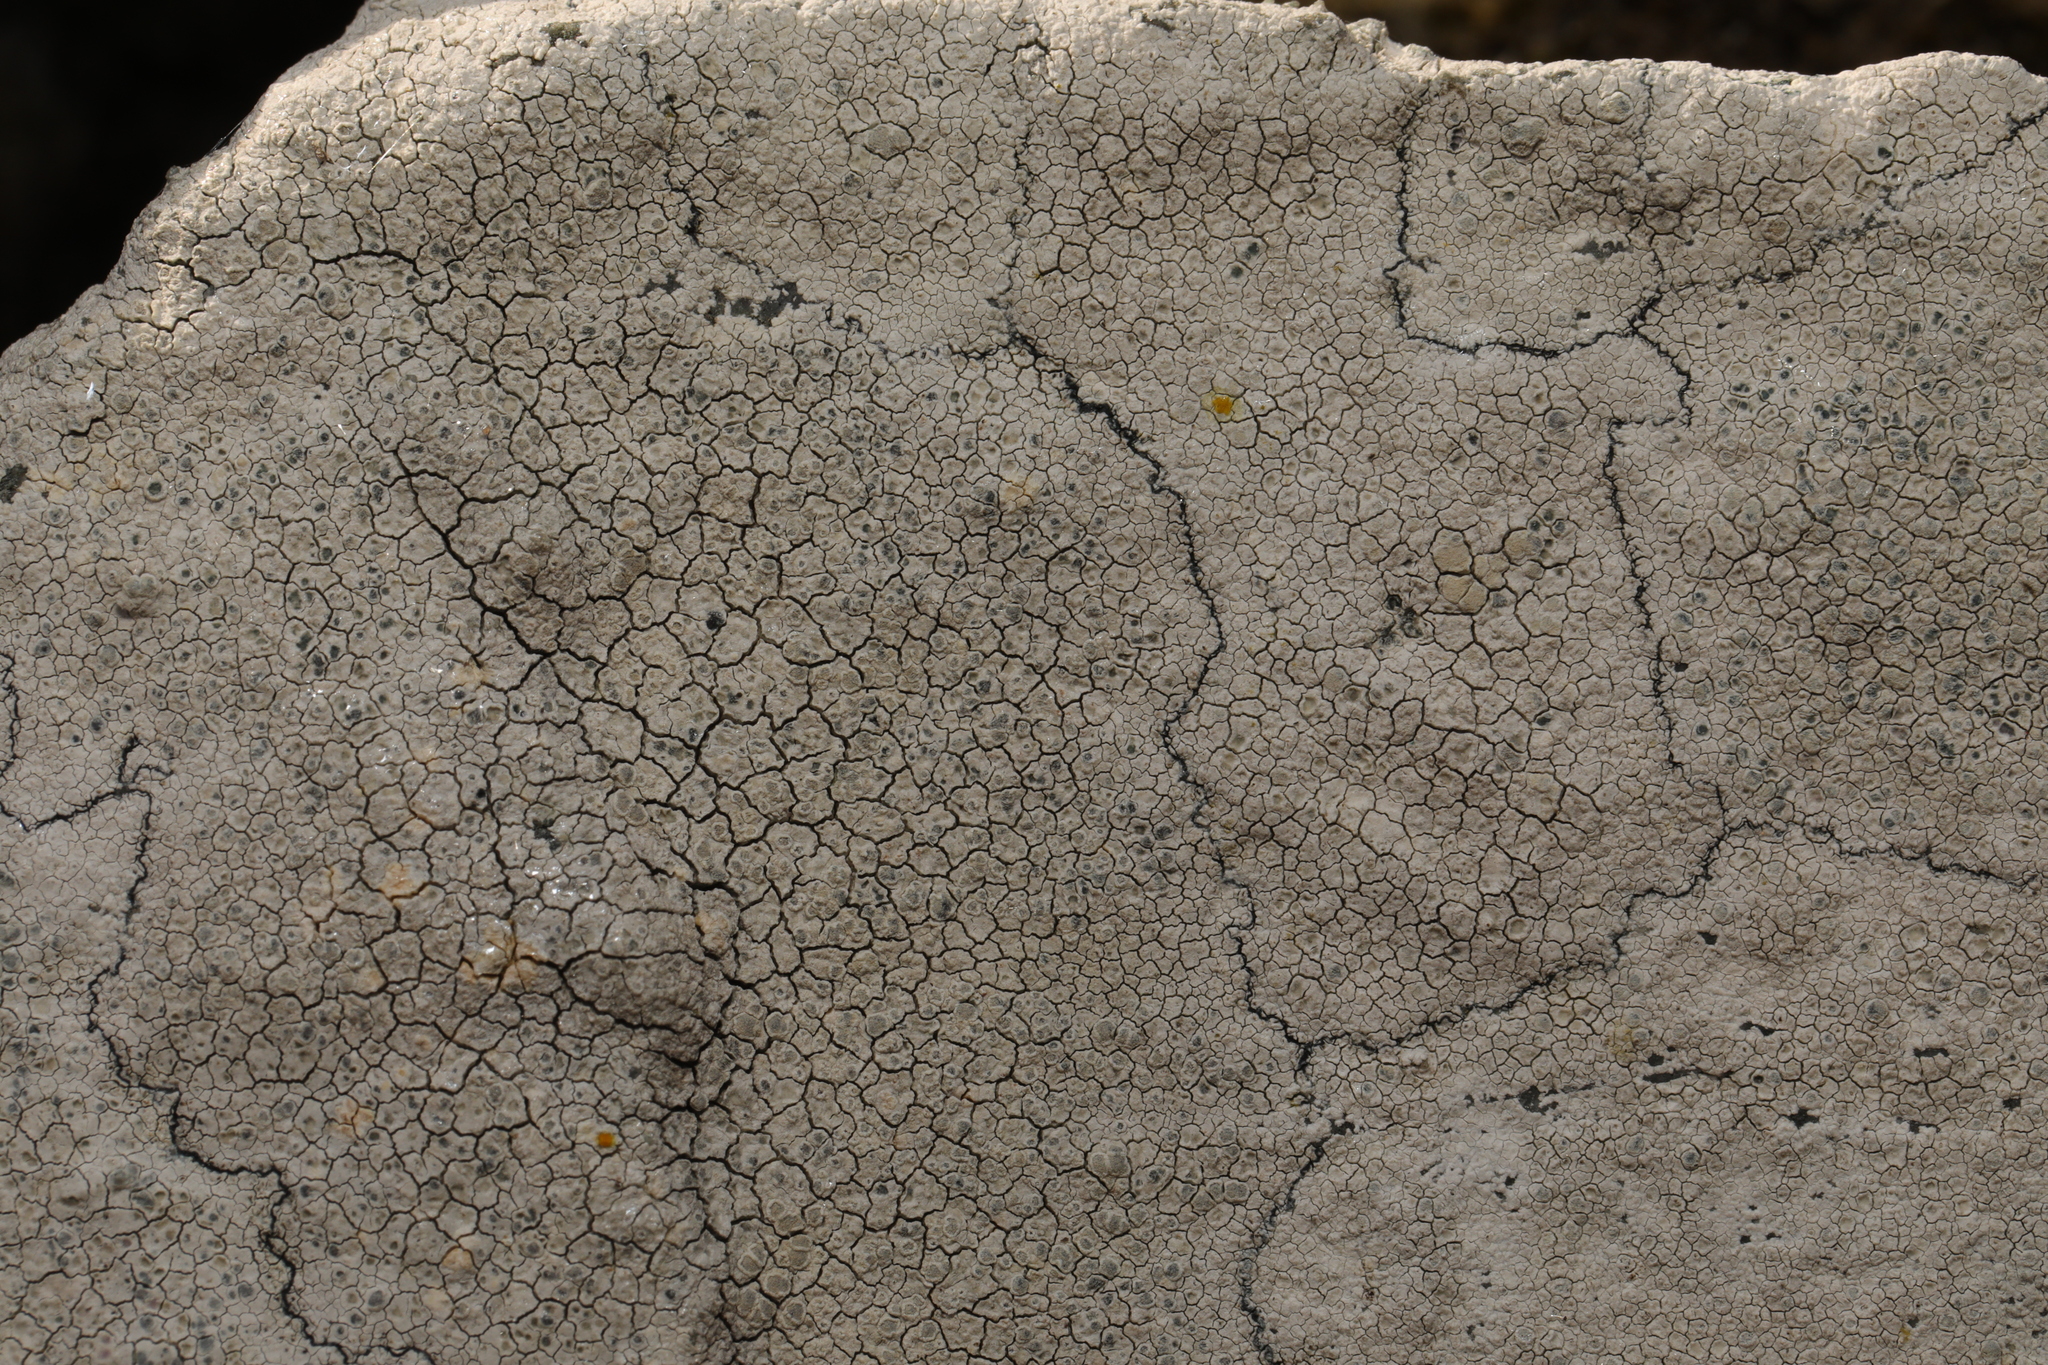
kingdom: Fungi
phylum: Ascomycota
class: Lecanoromycetes
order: Lecanorales
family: Lecanoraceae
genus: Glaucomaria
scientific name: Glaucomaria rupicola
